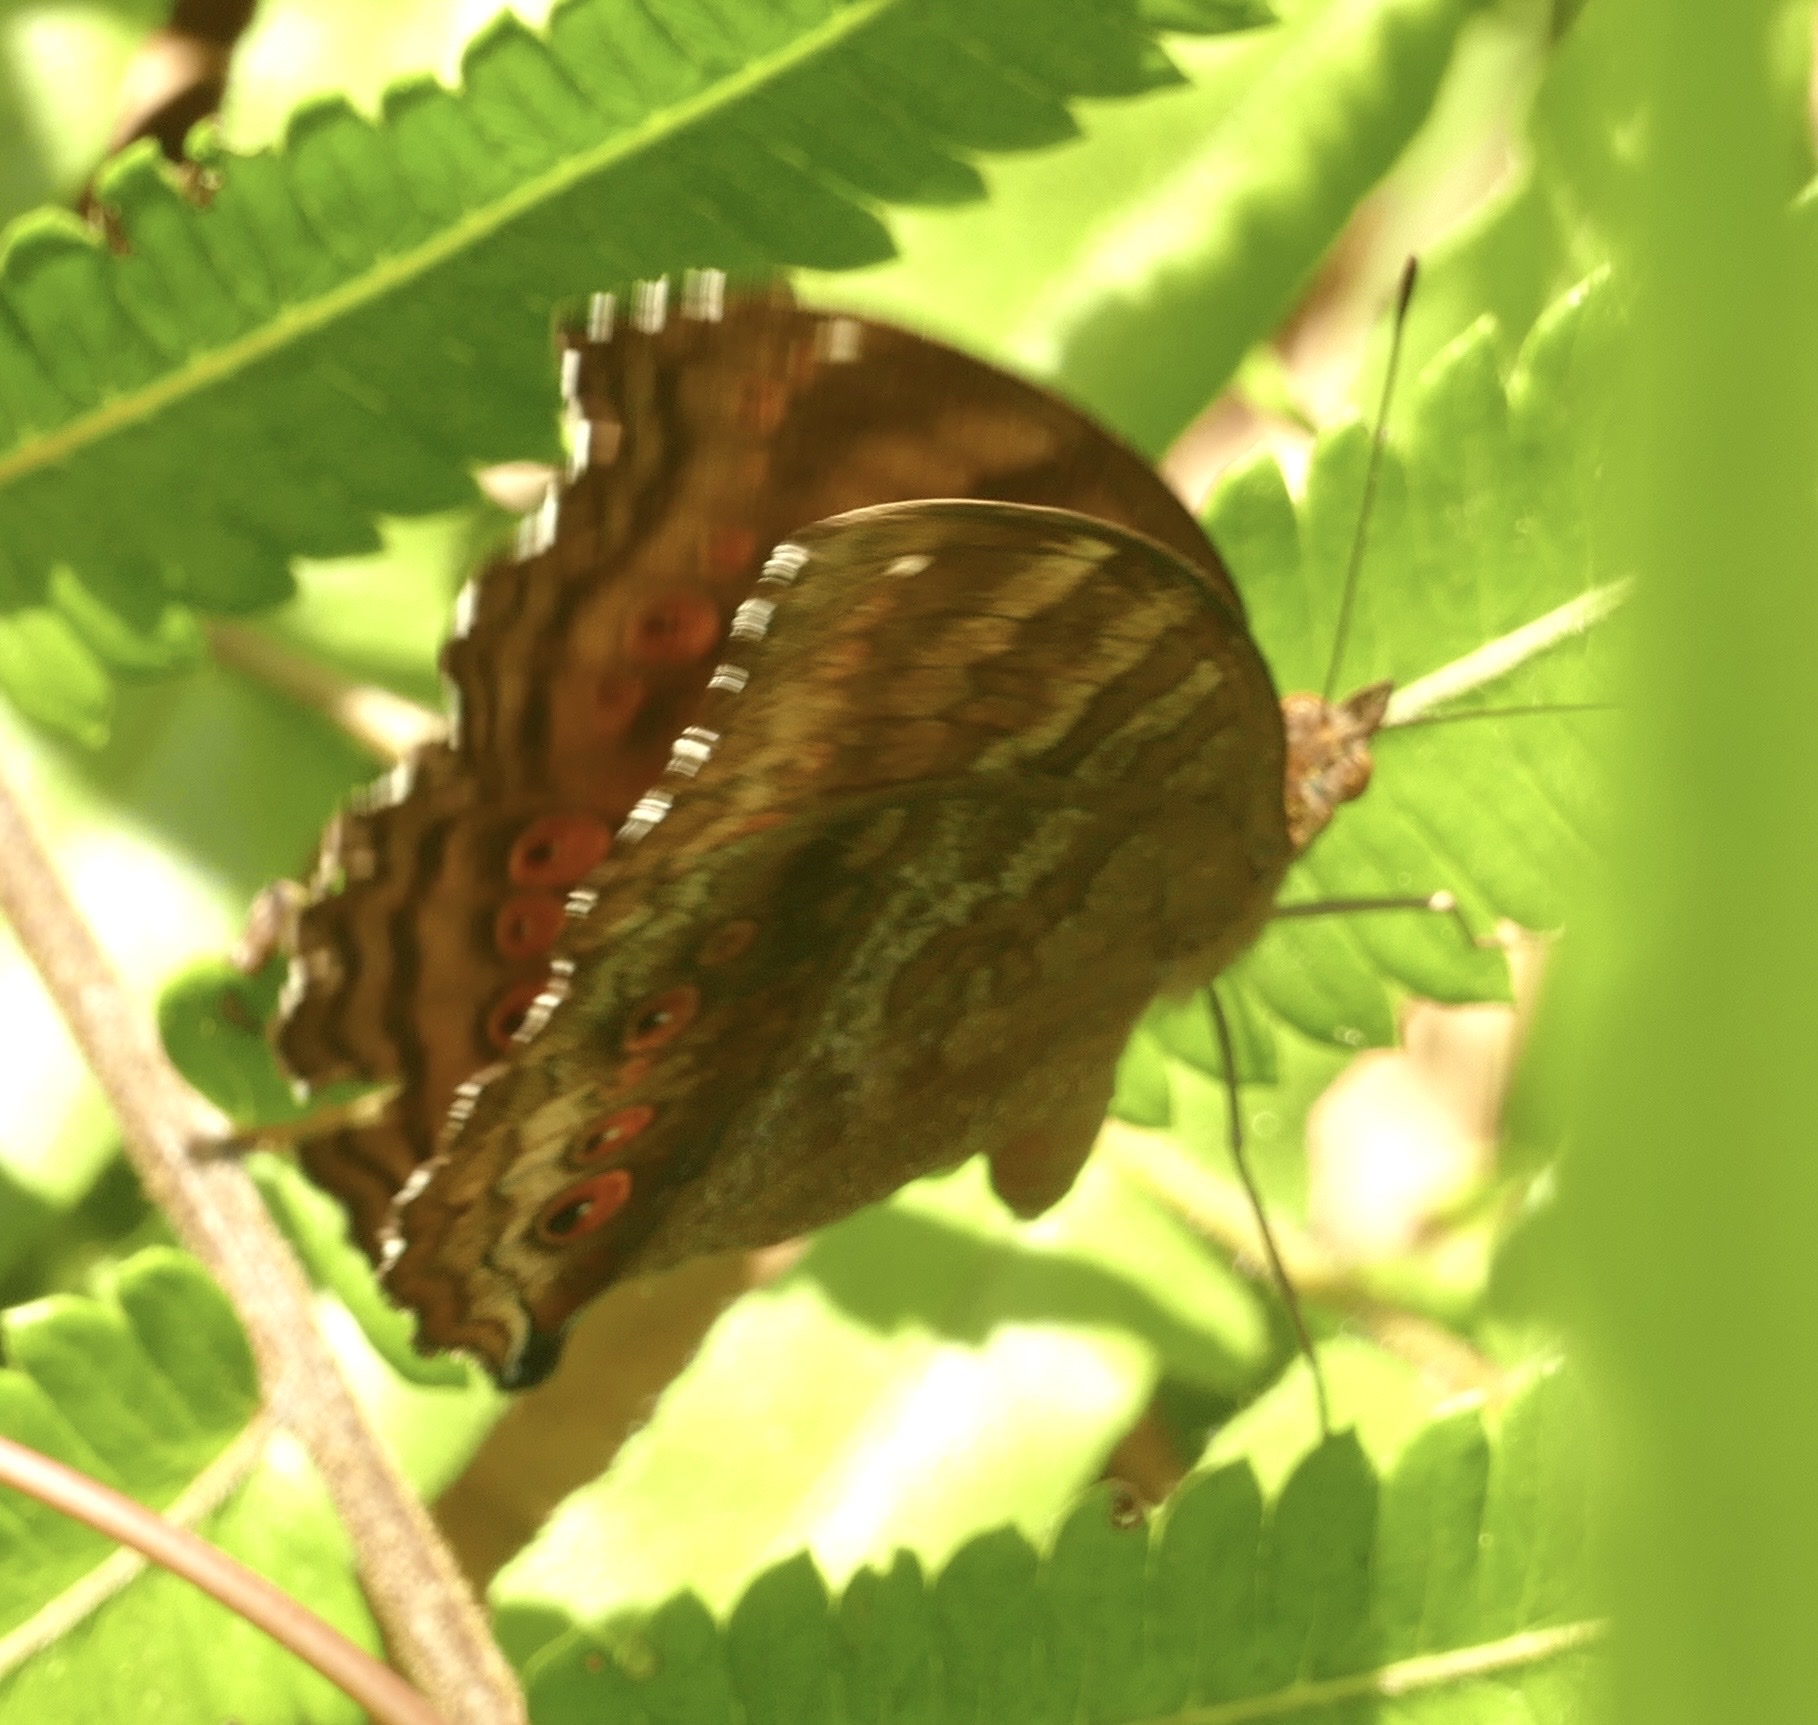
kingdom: Animalia
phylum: Arthropoda
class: Insecta
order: Lepidoptera
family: Nymphalidae
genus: Junonia
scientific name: Junonia hedonia
